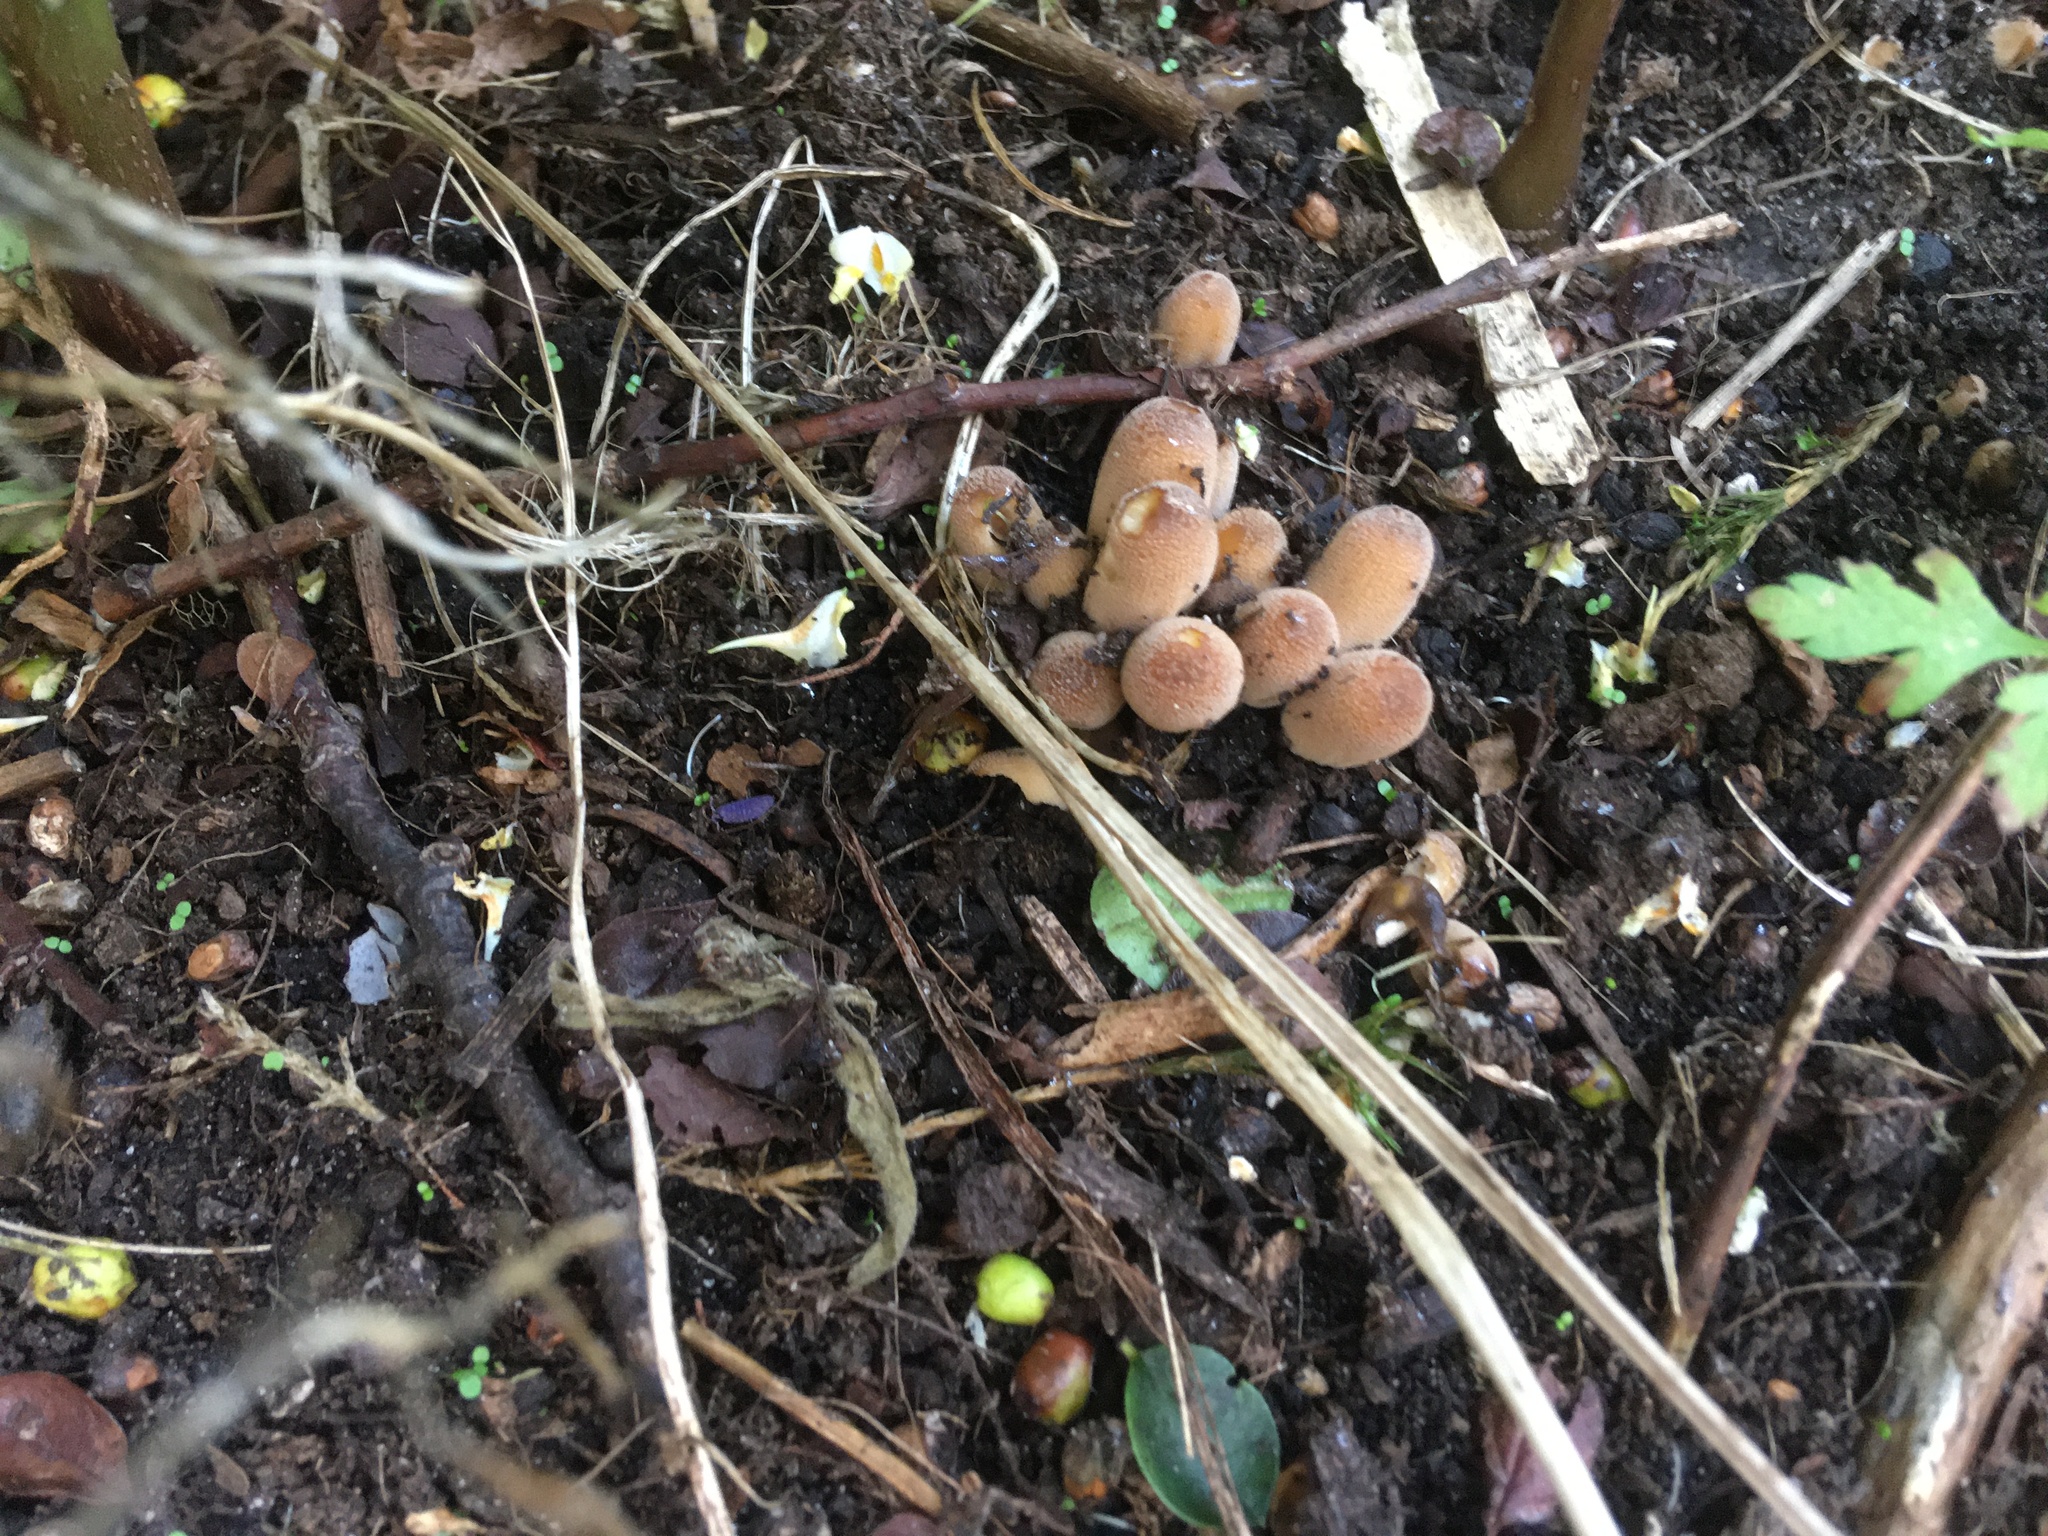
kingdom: Fungi
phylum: Basidiomycota
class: Agaricomycetes
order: Agaricales
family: Psathyrellaceae
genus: Coprinellus
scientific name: Coprinellus micaceus
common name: Glistening ink-cap
